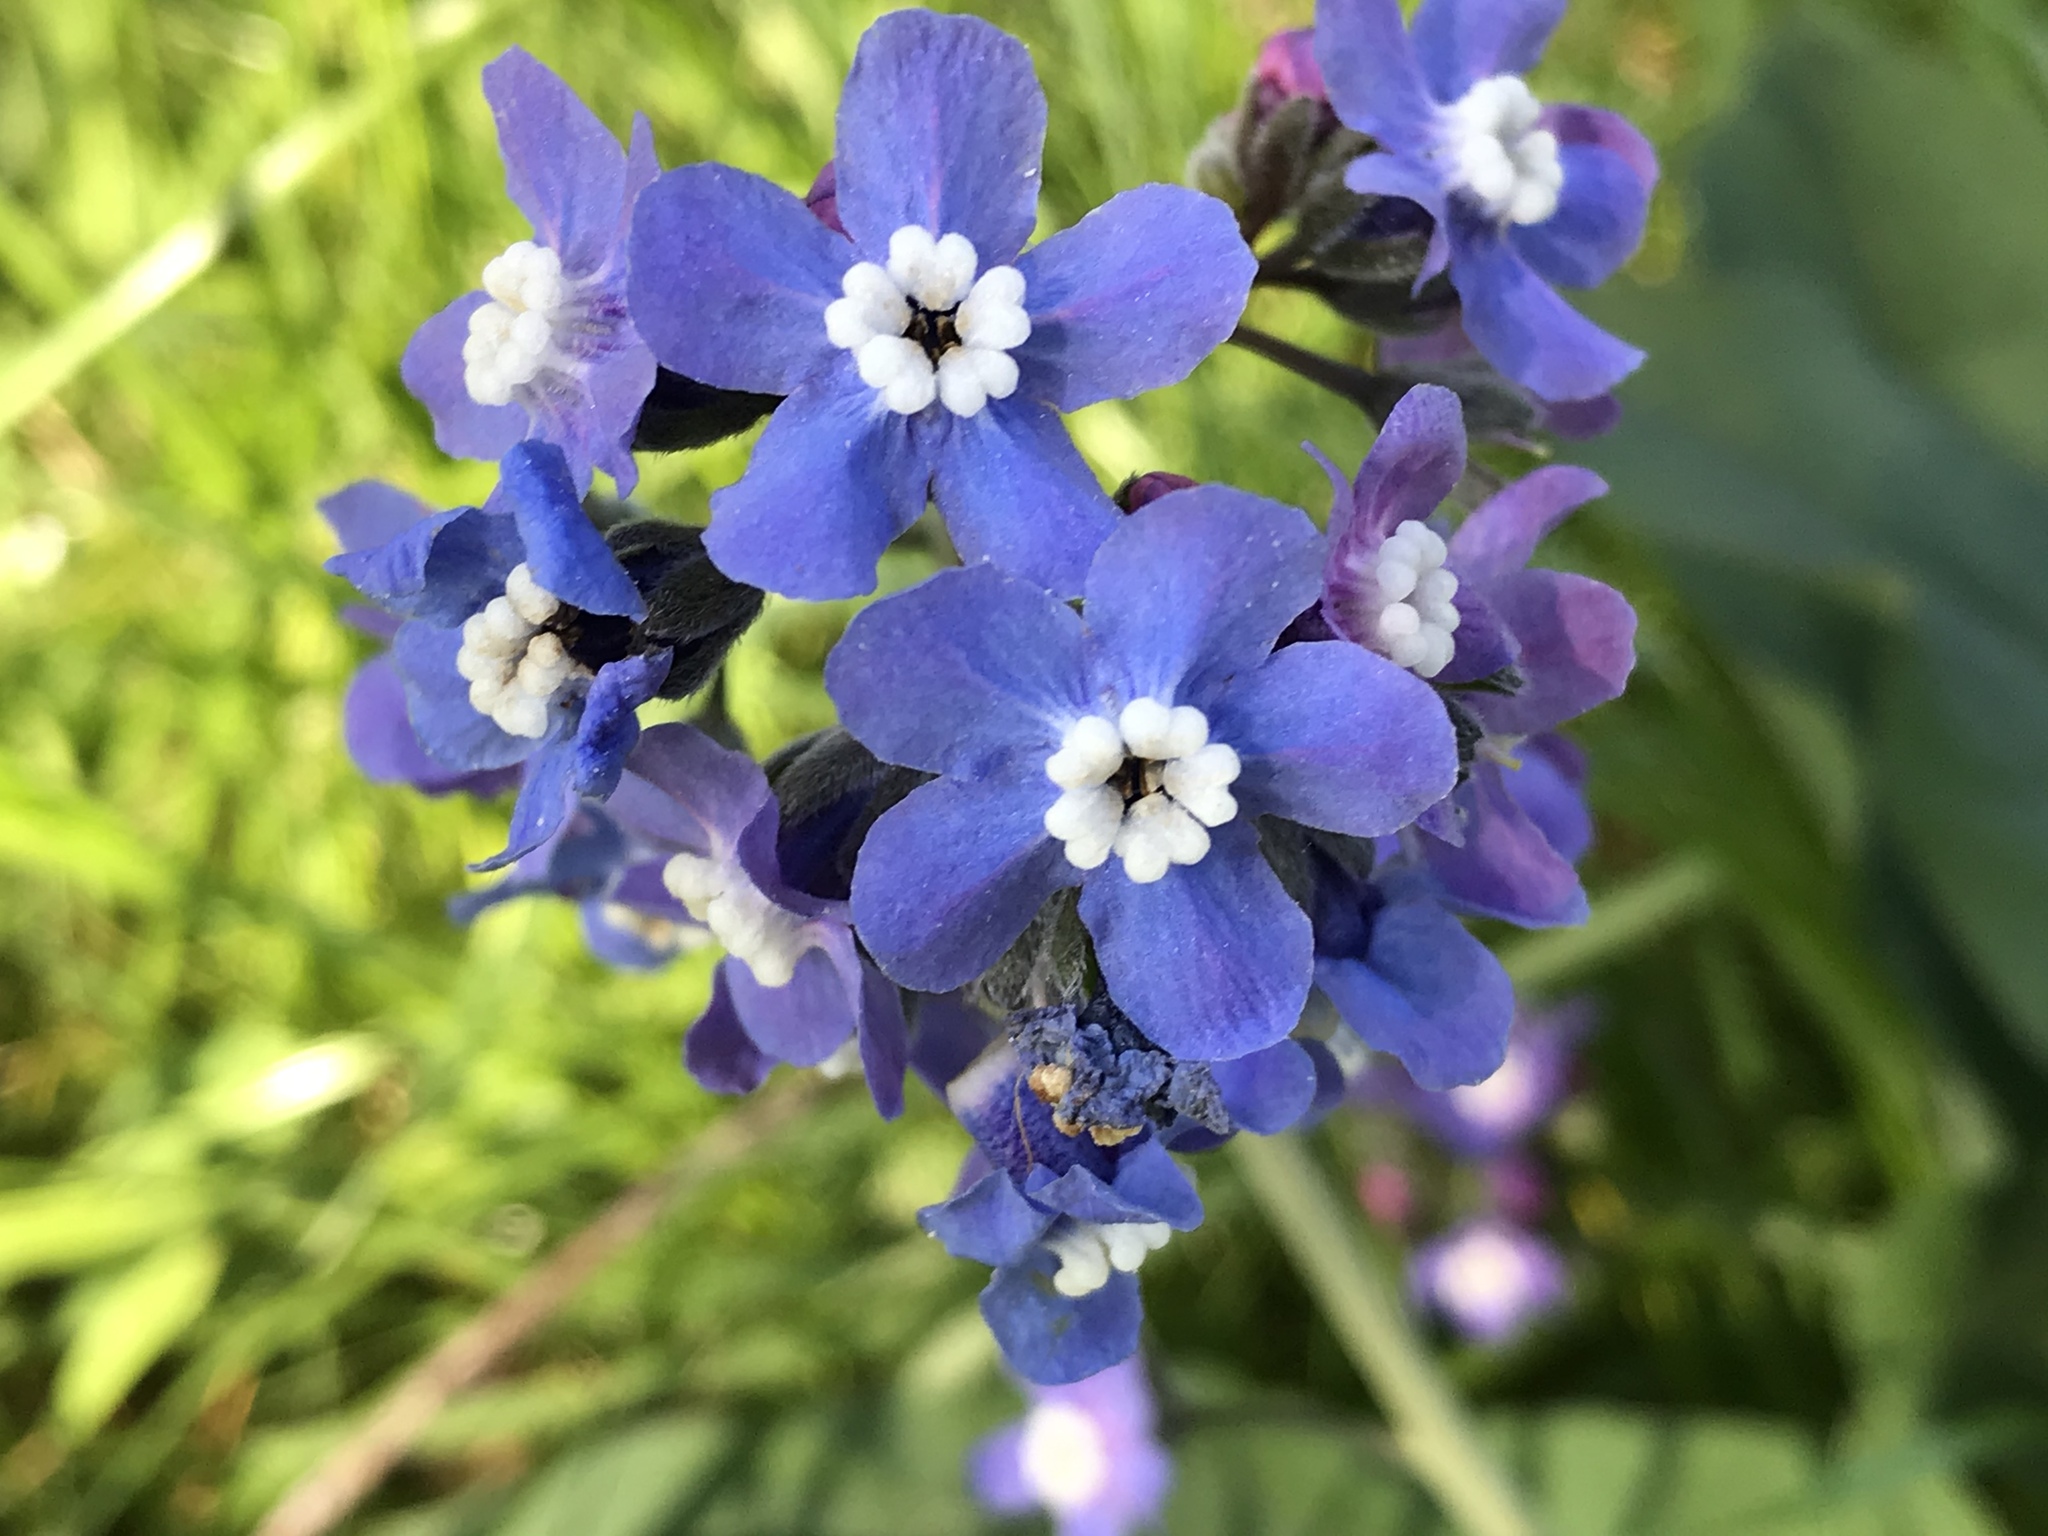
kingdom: Plantae
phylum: Tracheophyta
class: Magnoliopsida
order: Boraginales
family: Boraginaceae
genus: Adelinia
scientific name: Adelinia grande
